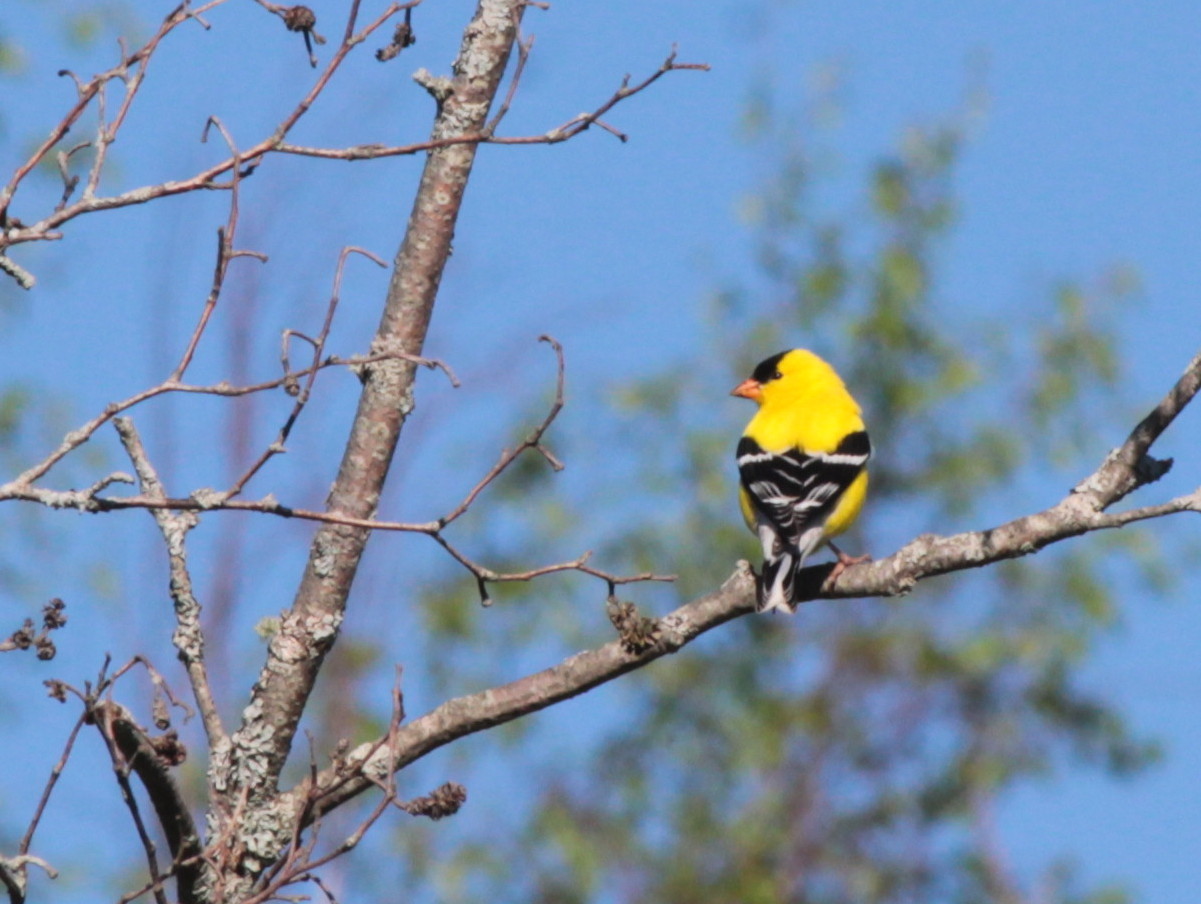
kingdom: Animalia
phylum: Chordata
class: Aves
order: Passeriformes
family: Fringillidae
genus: Spinus
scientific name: Spinus tristis
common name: American goldfinch
